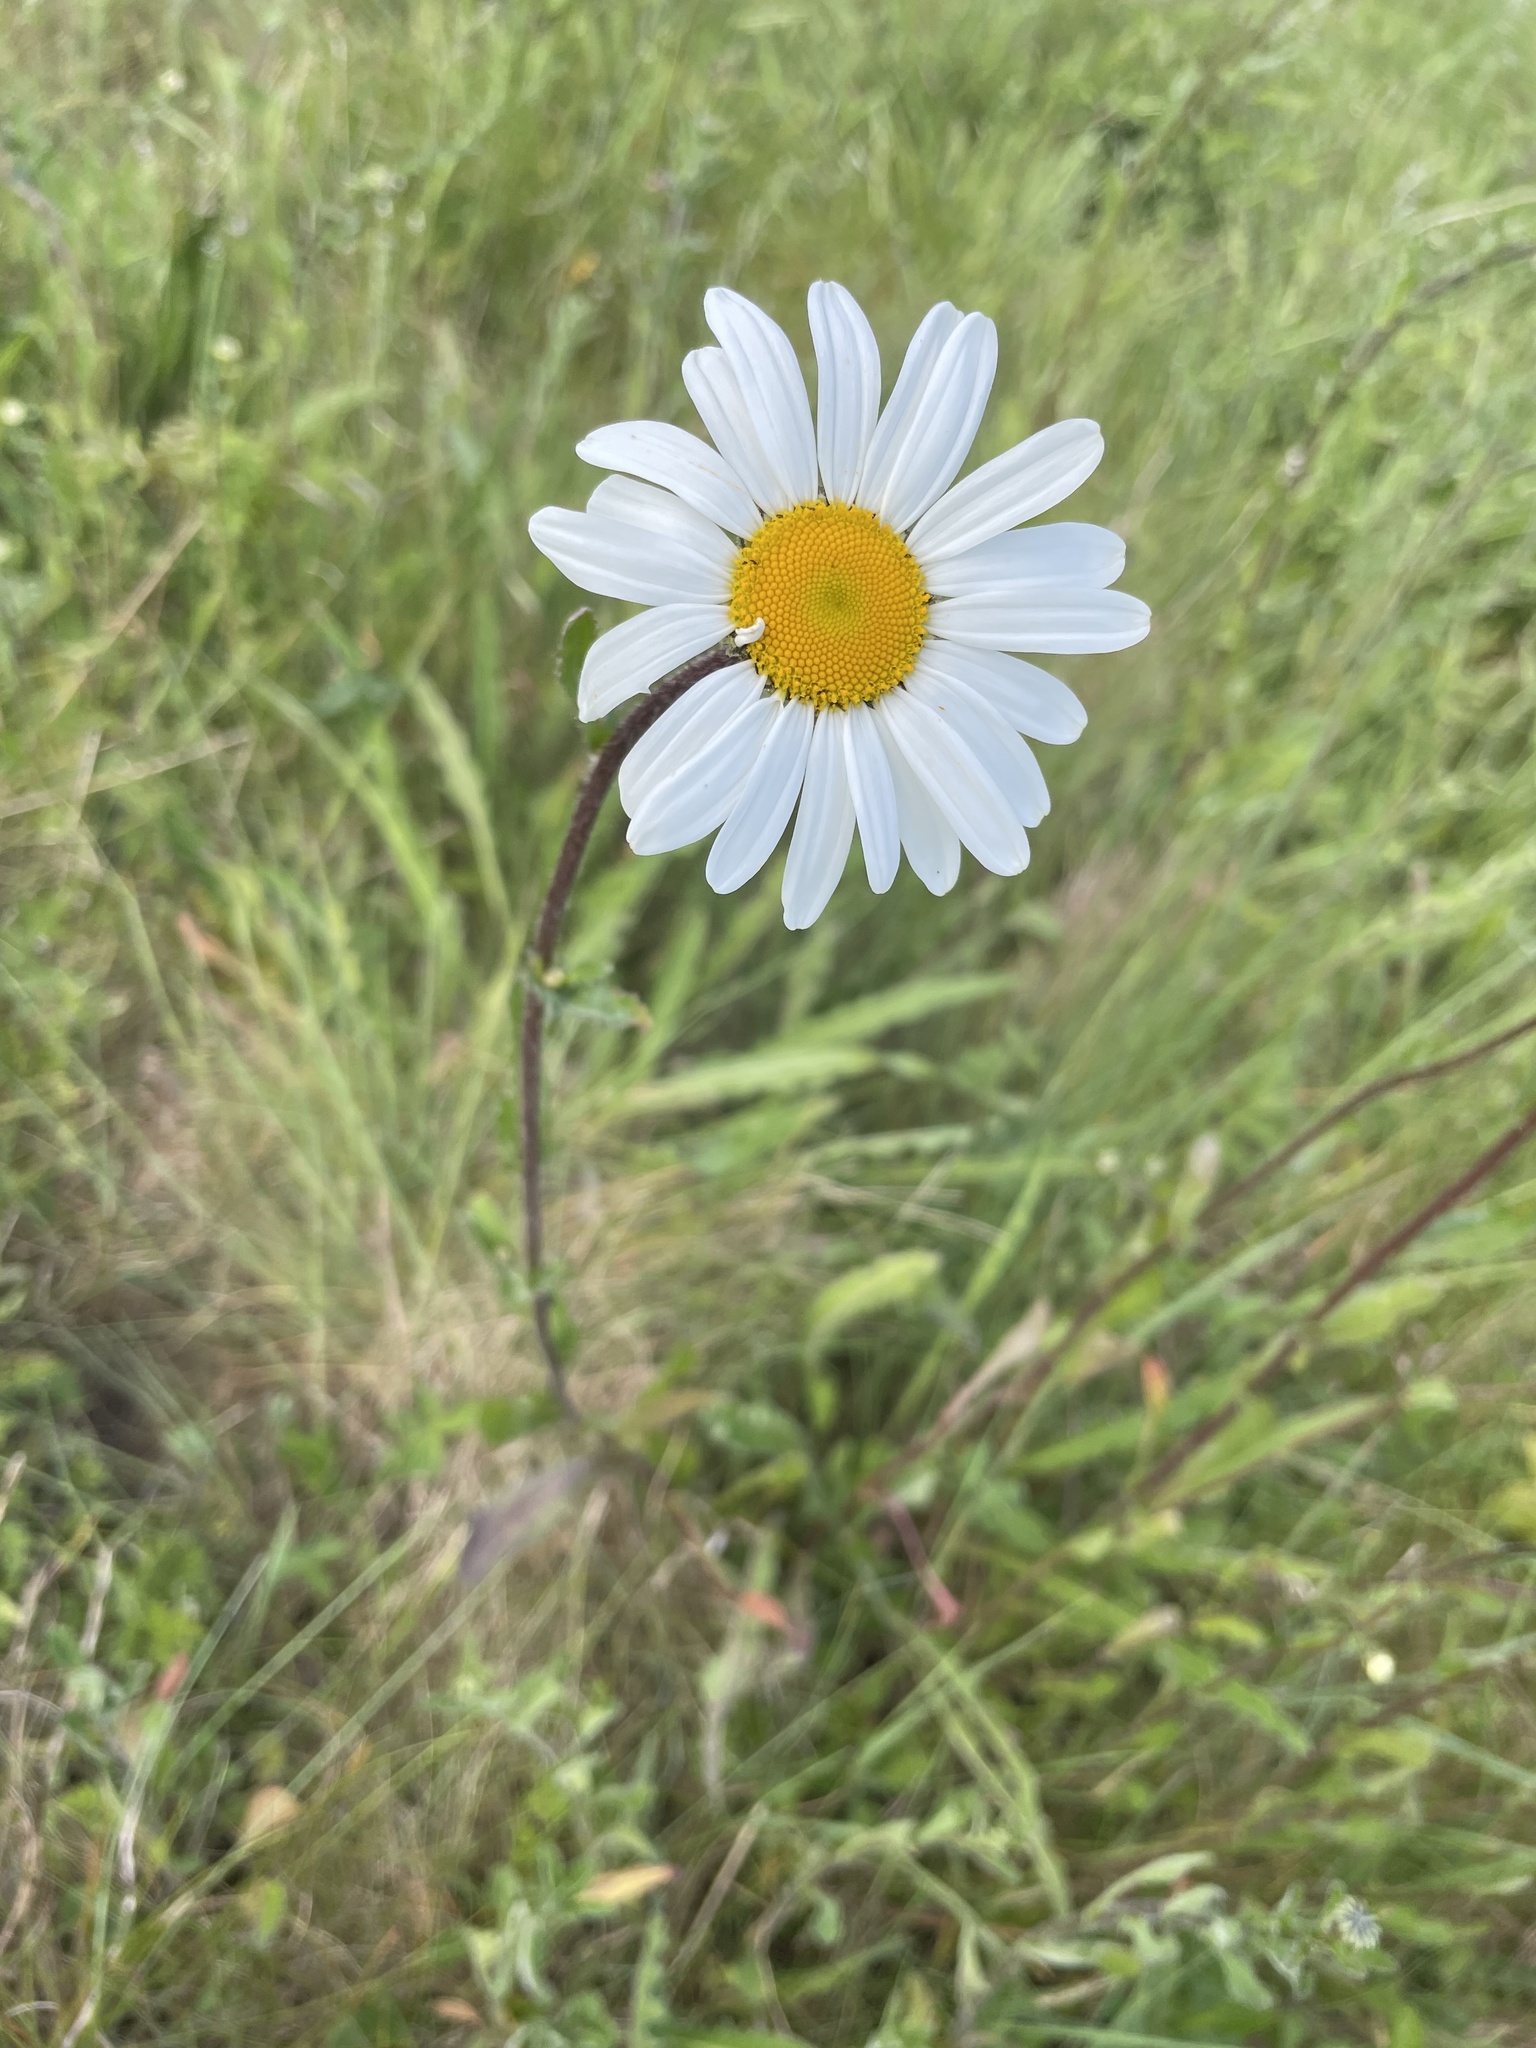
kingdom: Plantae
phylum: Tracheophyta
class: Magnoliopsida
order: Asterales
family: Asteraceae
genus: Leucanthemum
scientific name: Leucanthemum vulgare
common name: Oxeye daisy
